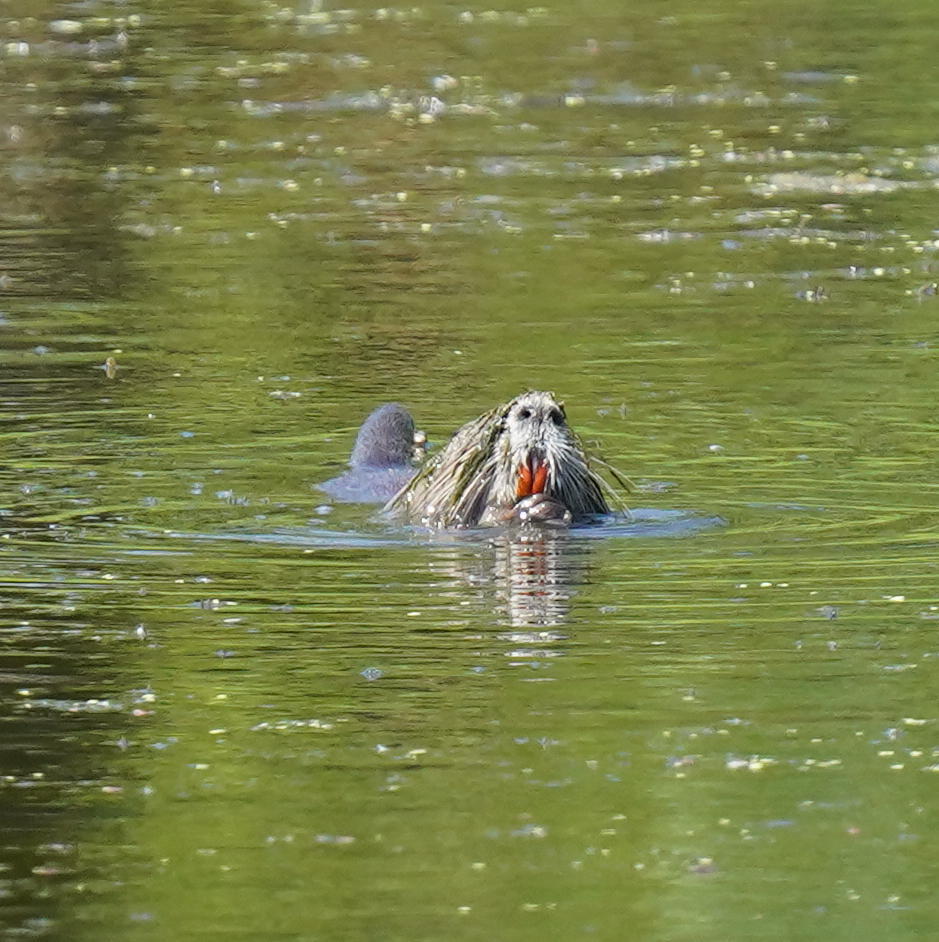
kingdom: Animalia
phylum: Chordata
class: Mammalia
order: Rodentia
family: Myocastoridae
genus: Myocastor
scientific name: Myocastor coypus
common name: Coypu
